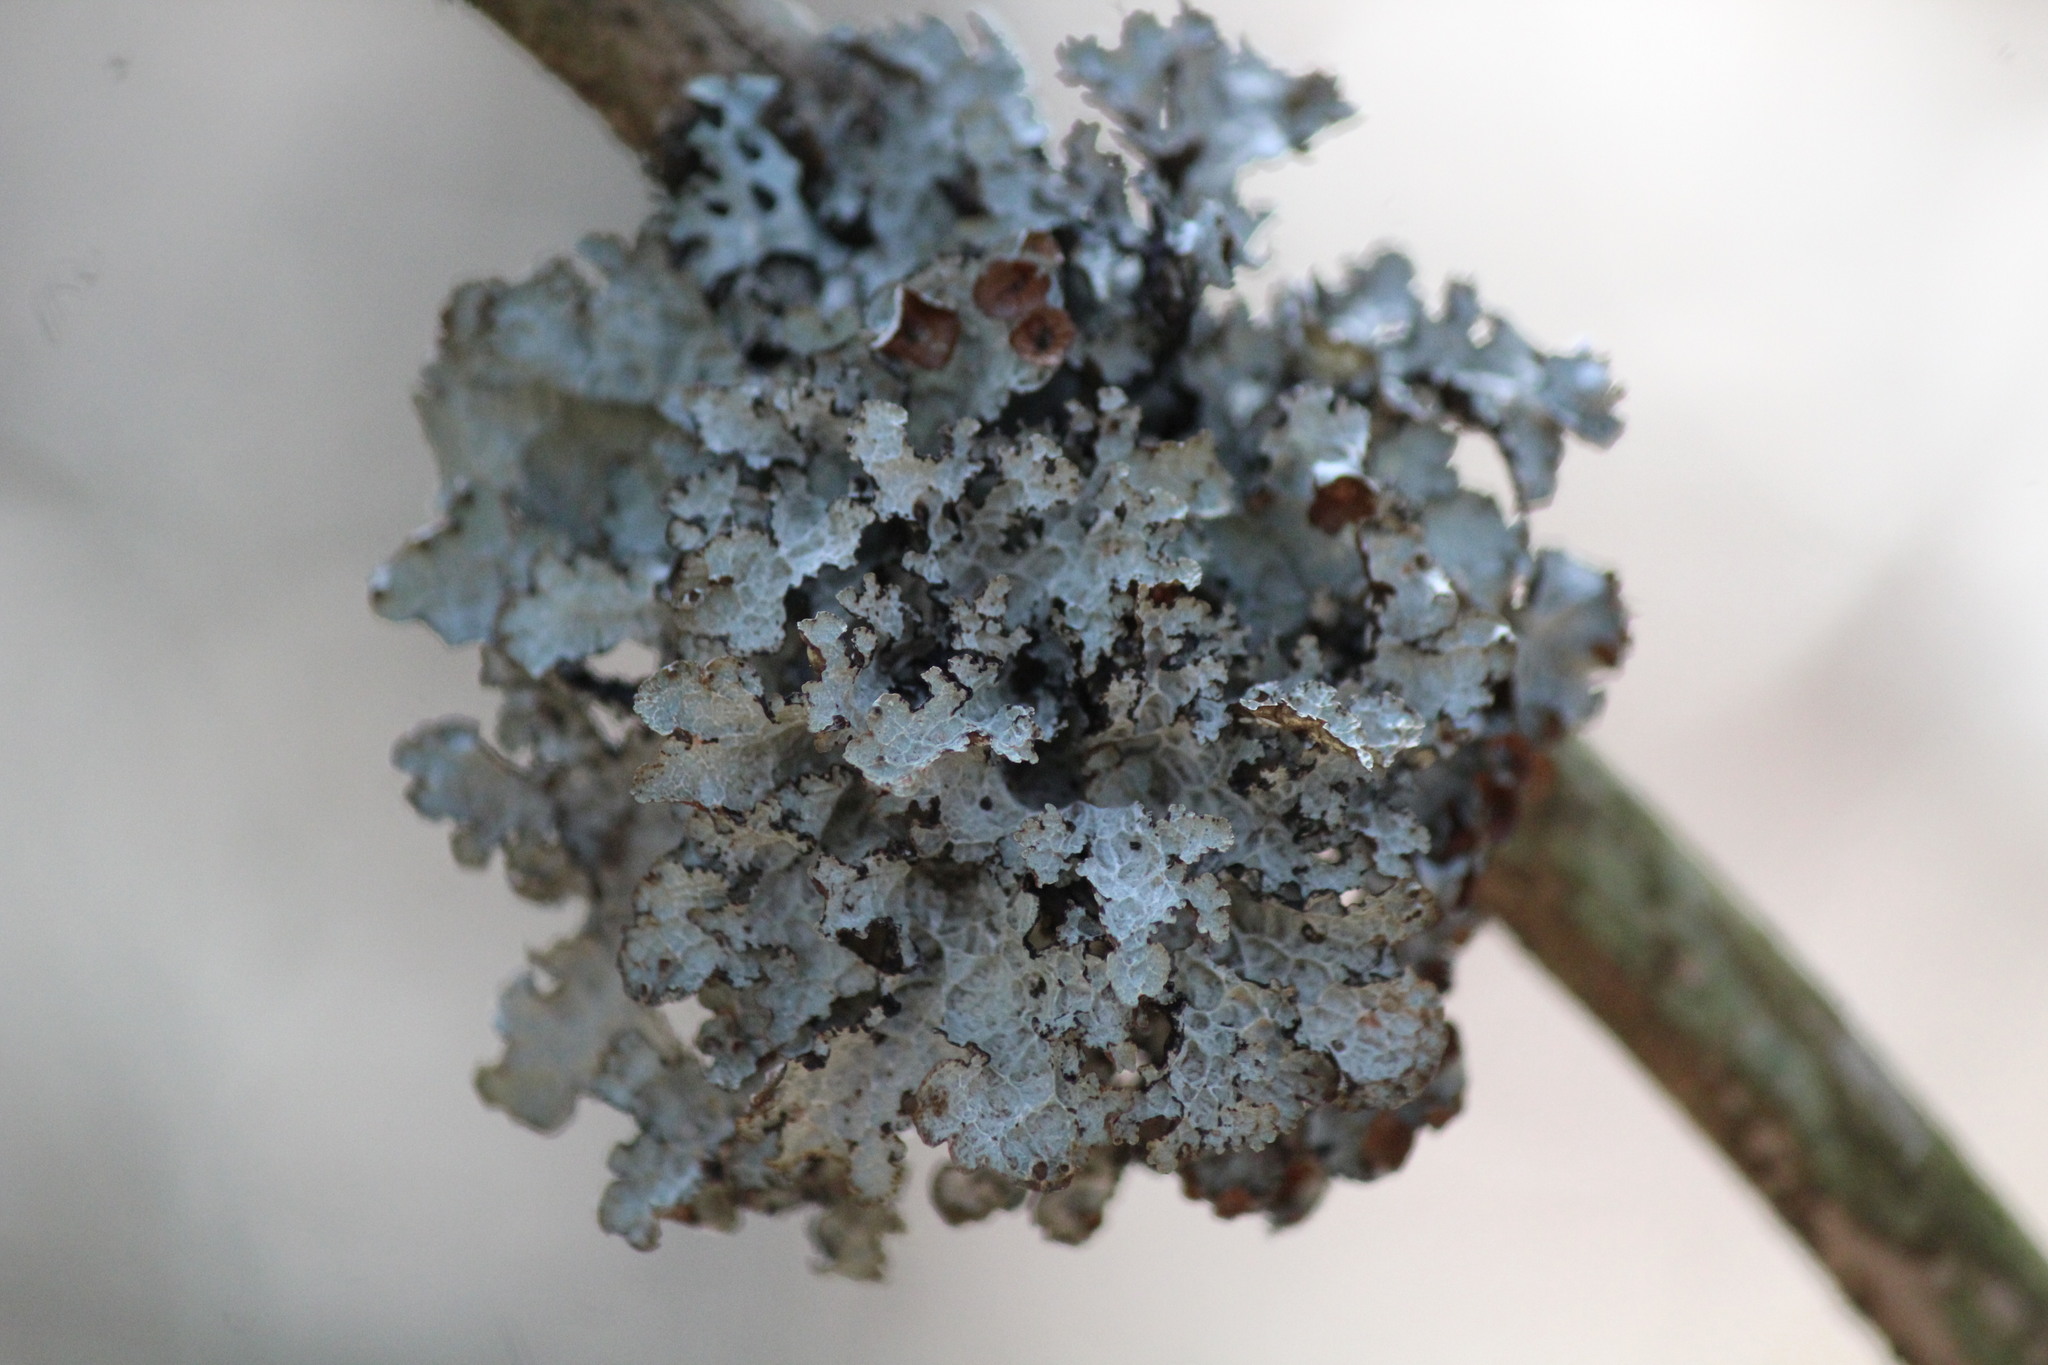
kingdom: Fungi
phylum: Ascomycota
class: Lecanoromycetes
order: Lecanorales
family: Parmeliaceae
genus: Platismatia
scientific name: Platismatia tuckermanii
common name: Crumpled rag lichen
